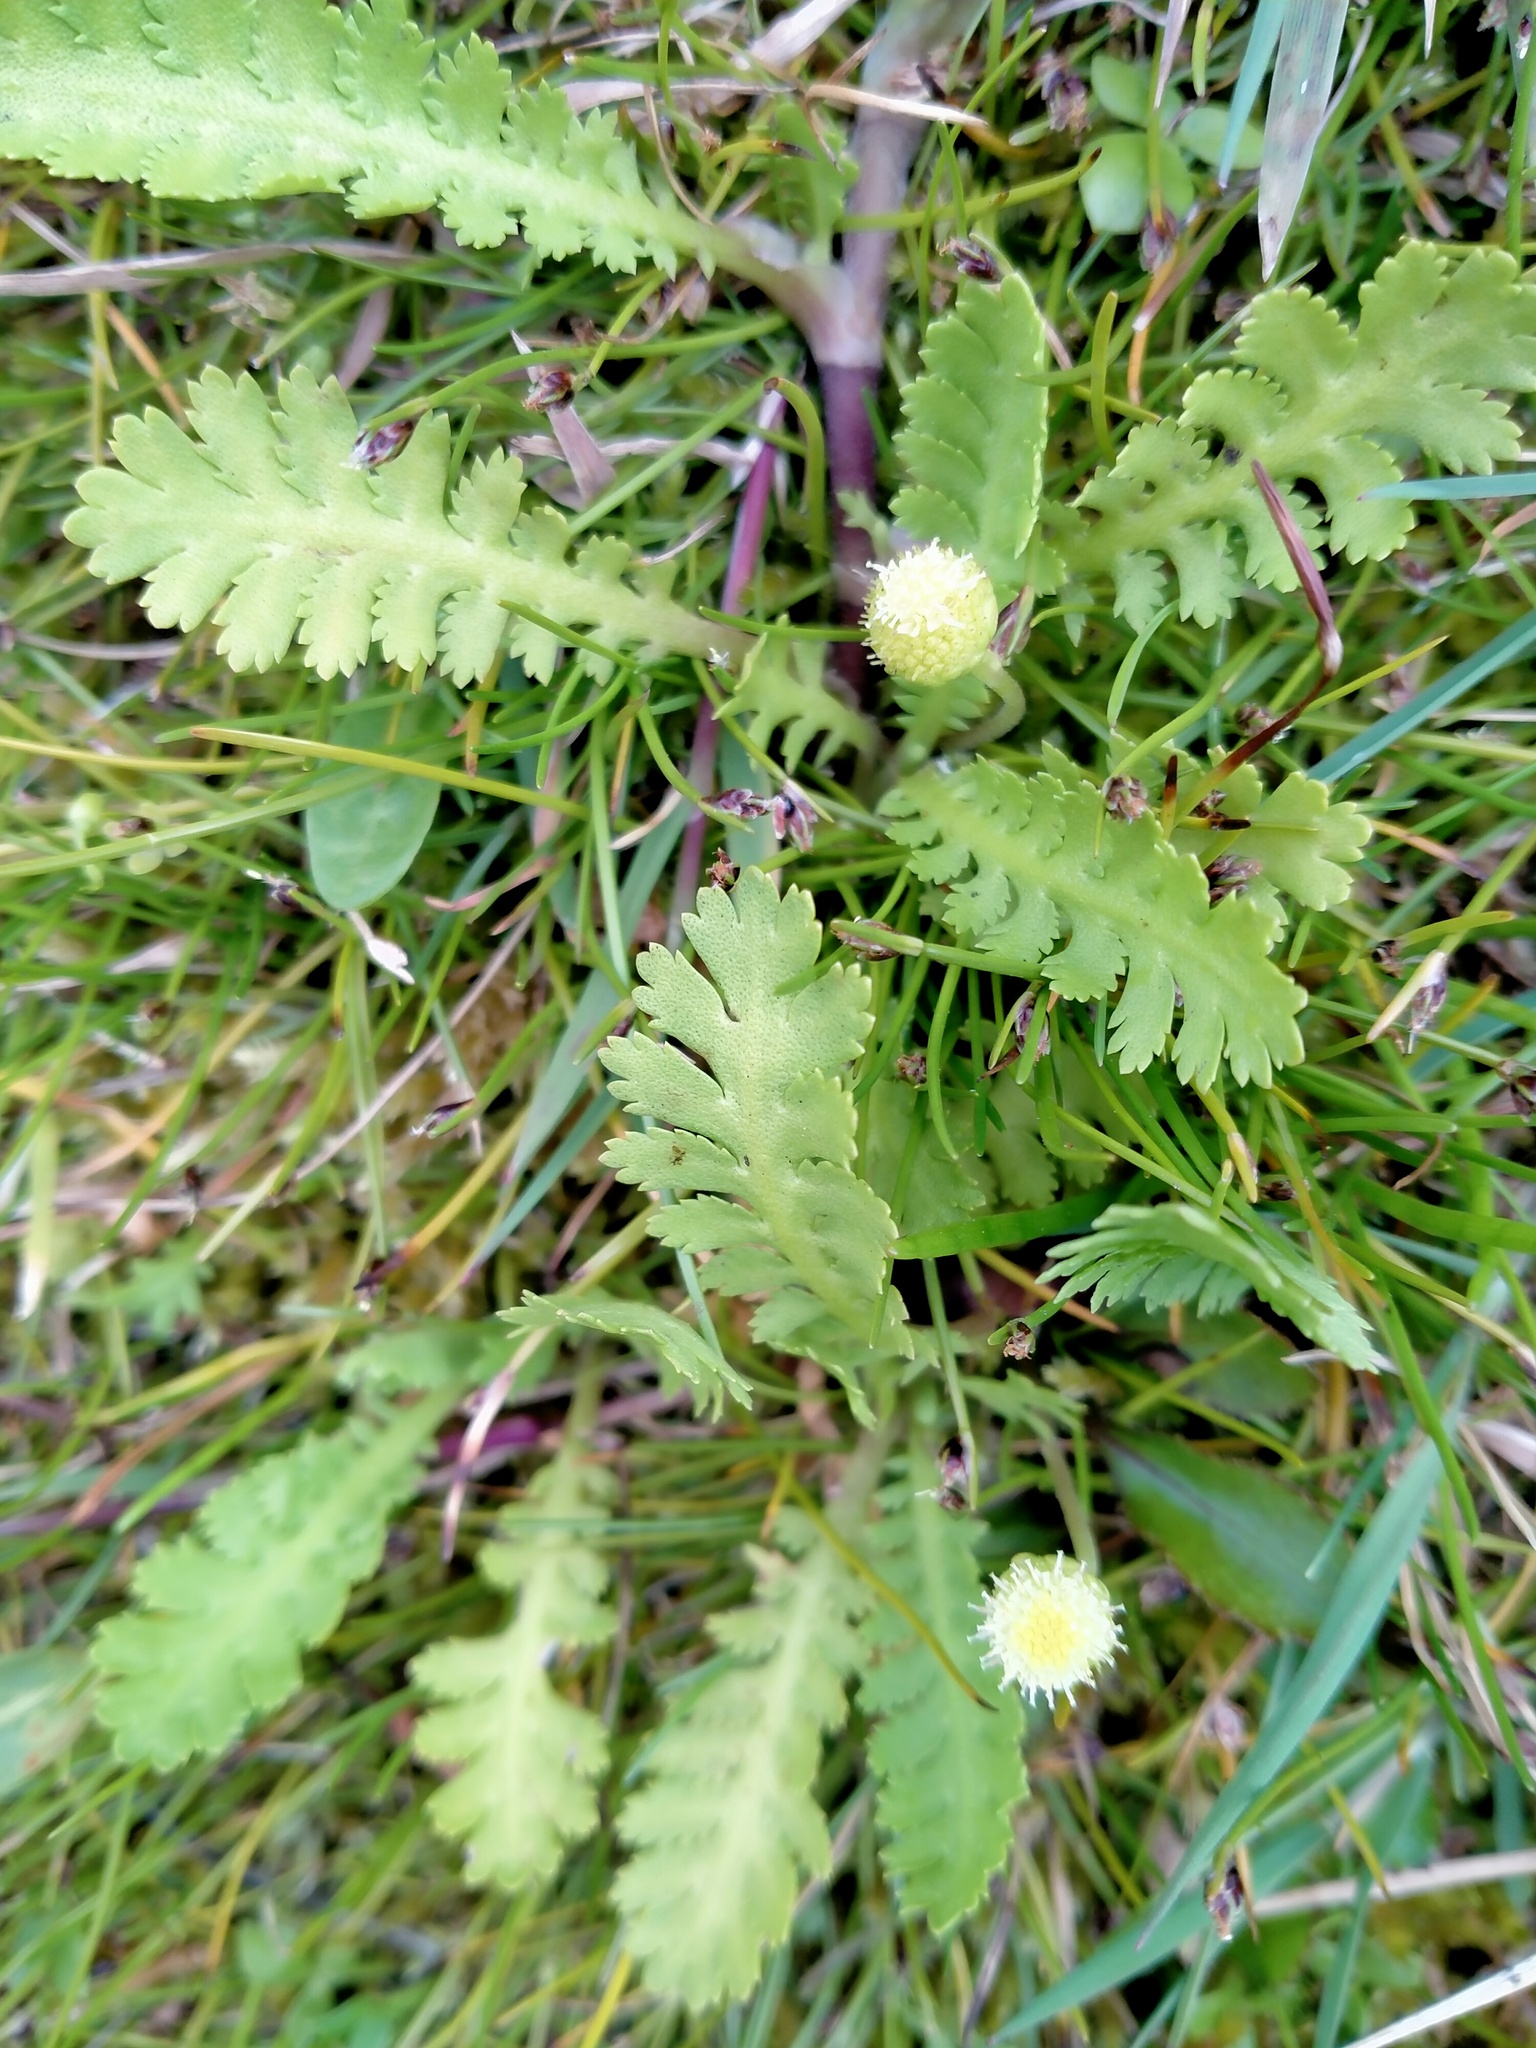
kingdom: Plantae
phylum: Tracheophyta
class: Magnoliopsida
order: Asterales
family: Asteraceae
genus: Leptinella
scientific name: Leptinella potentillina
